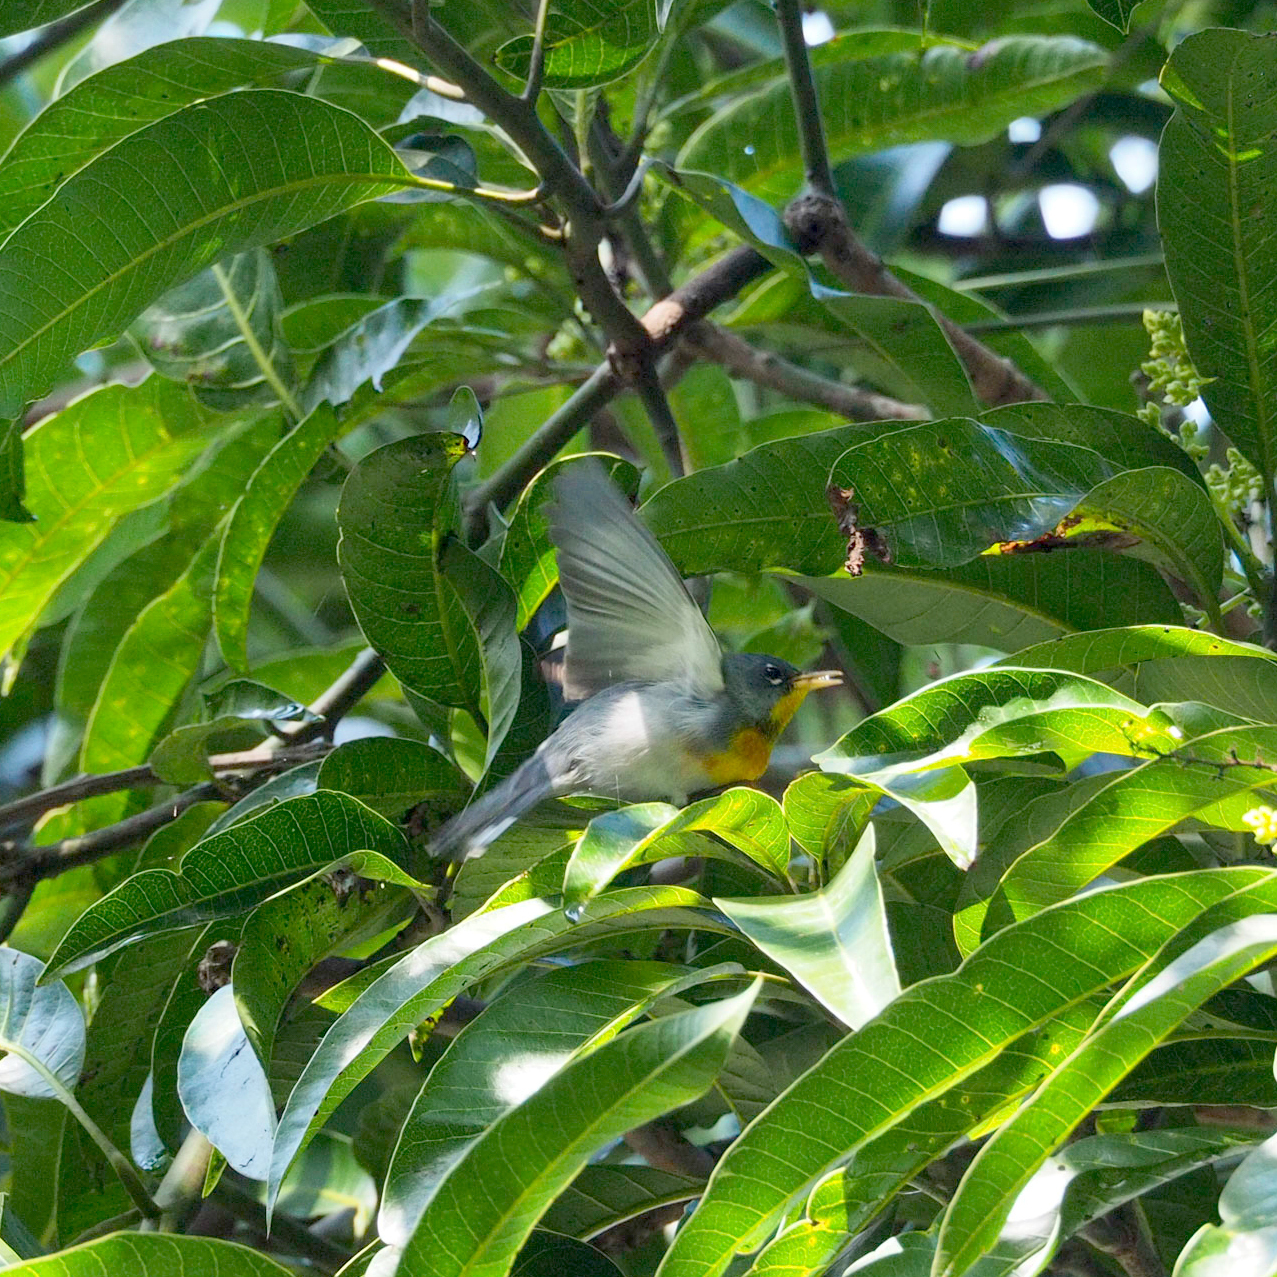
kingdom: Animalia
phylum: Chordata
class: Aves
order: Passeriformes
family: Parulidae
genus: Setophaga
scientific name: Setophaga americana
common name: Northern parula
